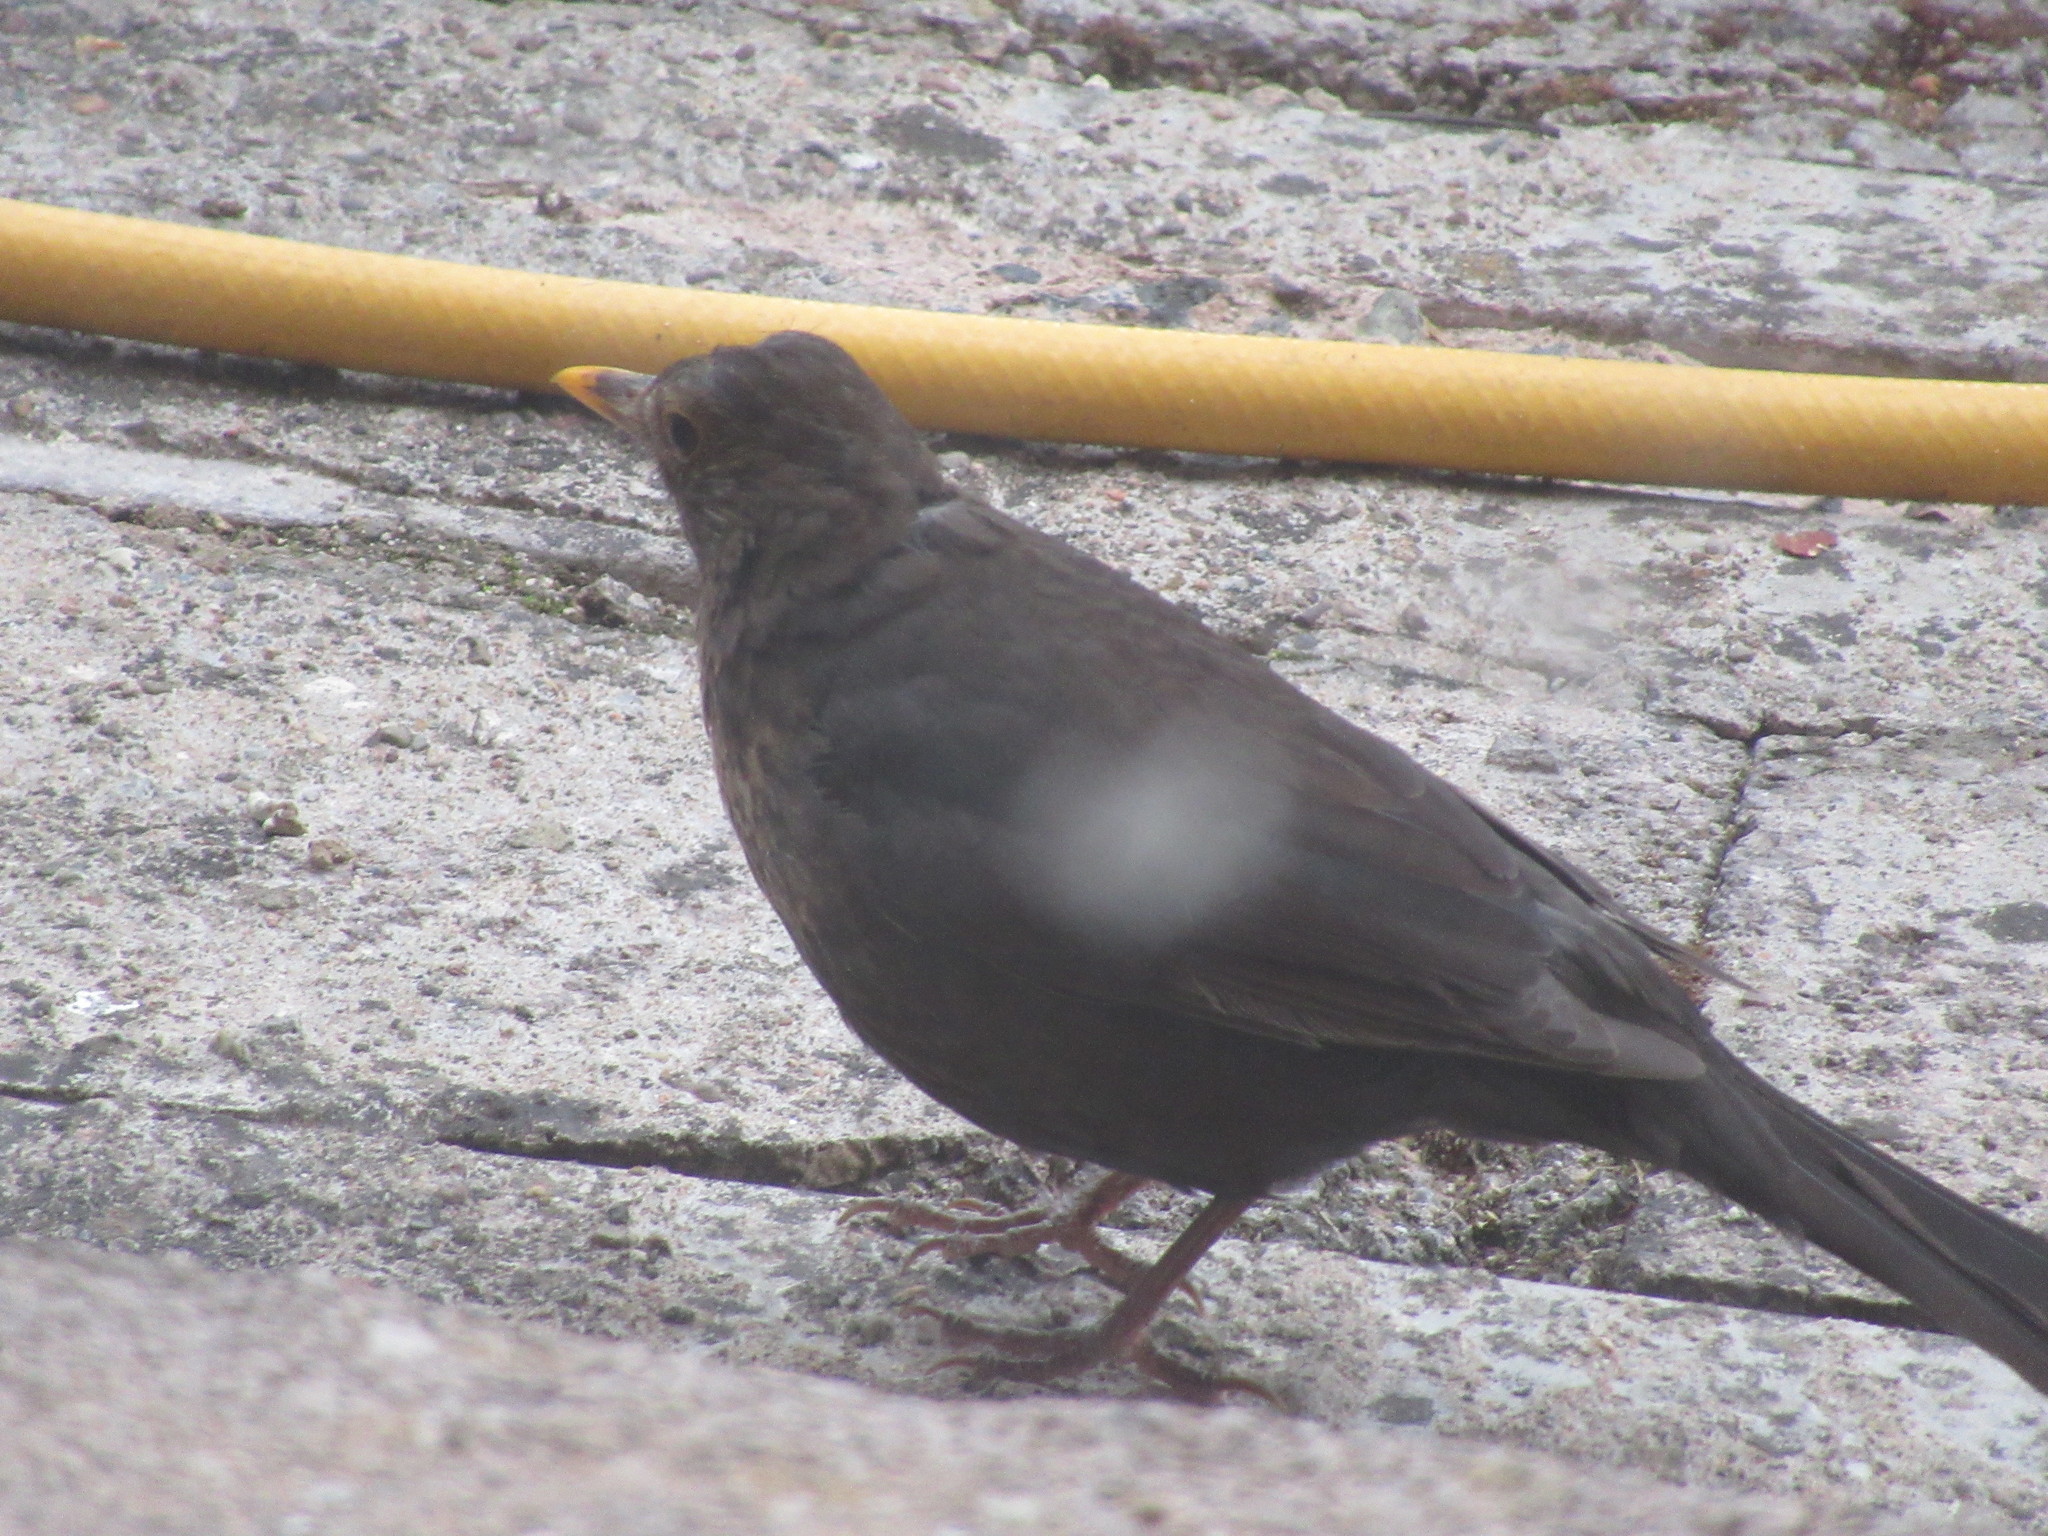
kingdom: Animalia
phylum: Chordata
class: Aves
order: Passeriformes
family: Turdidae
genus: Turdus
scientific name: Turdus merula
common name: Common blackbird
